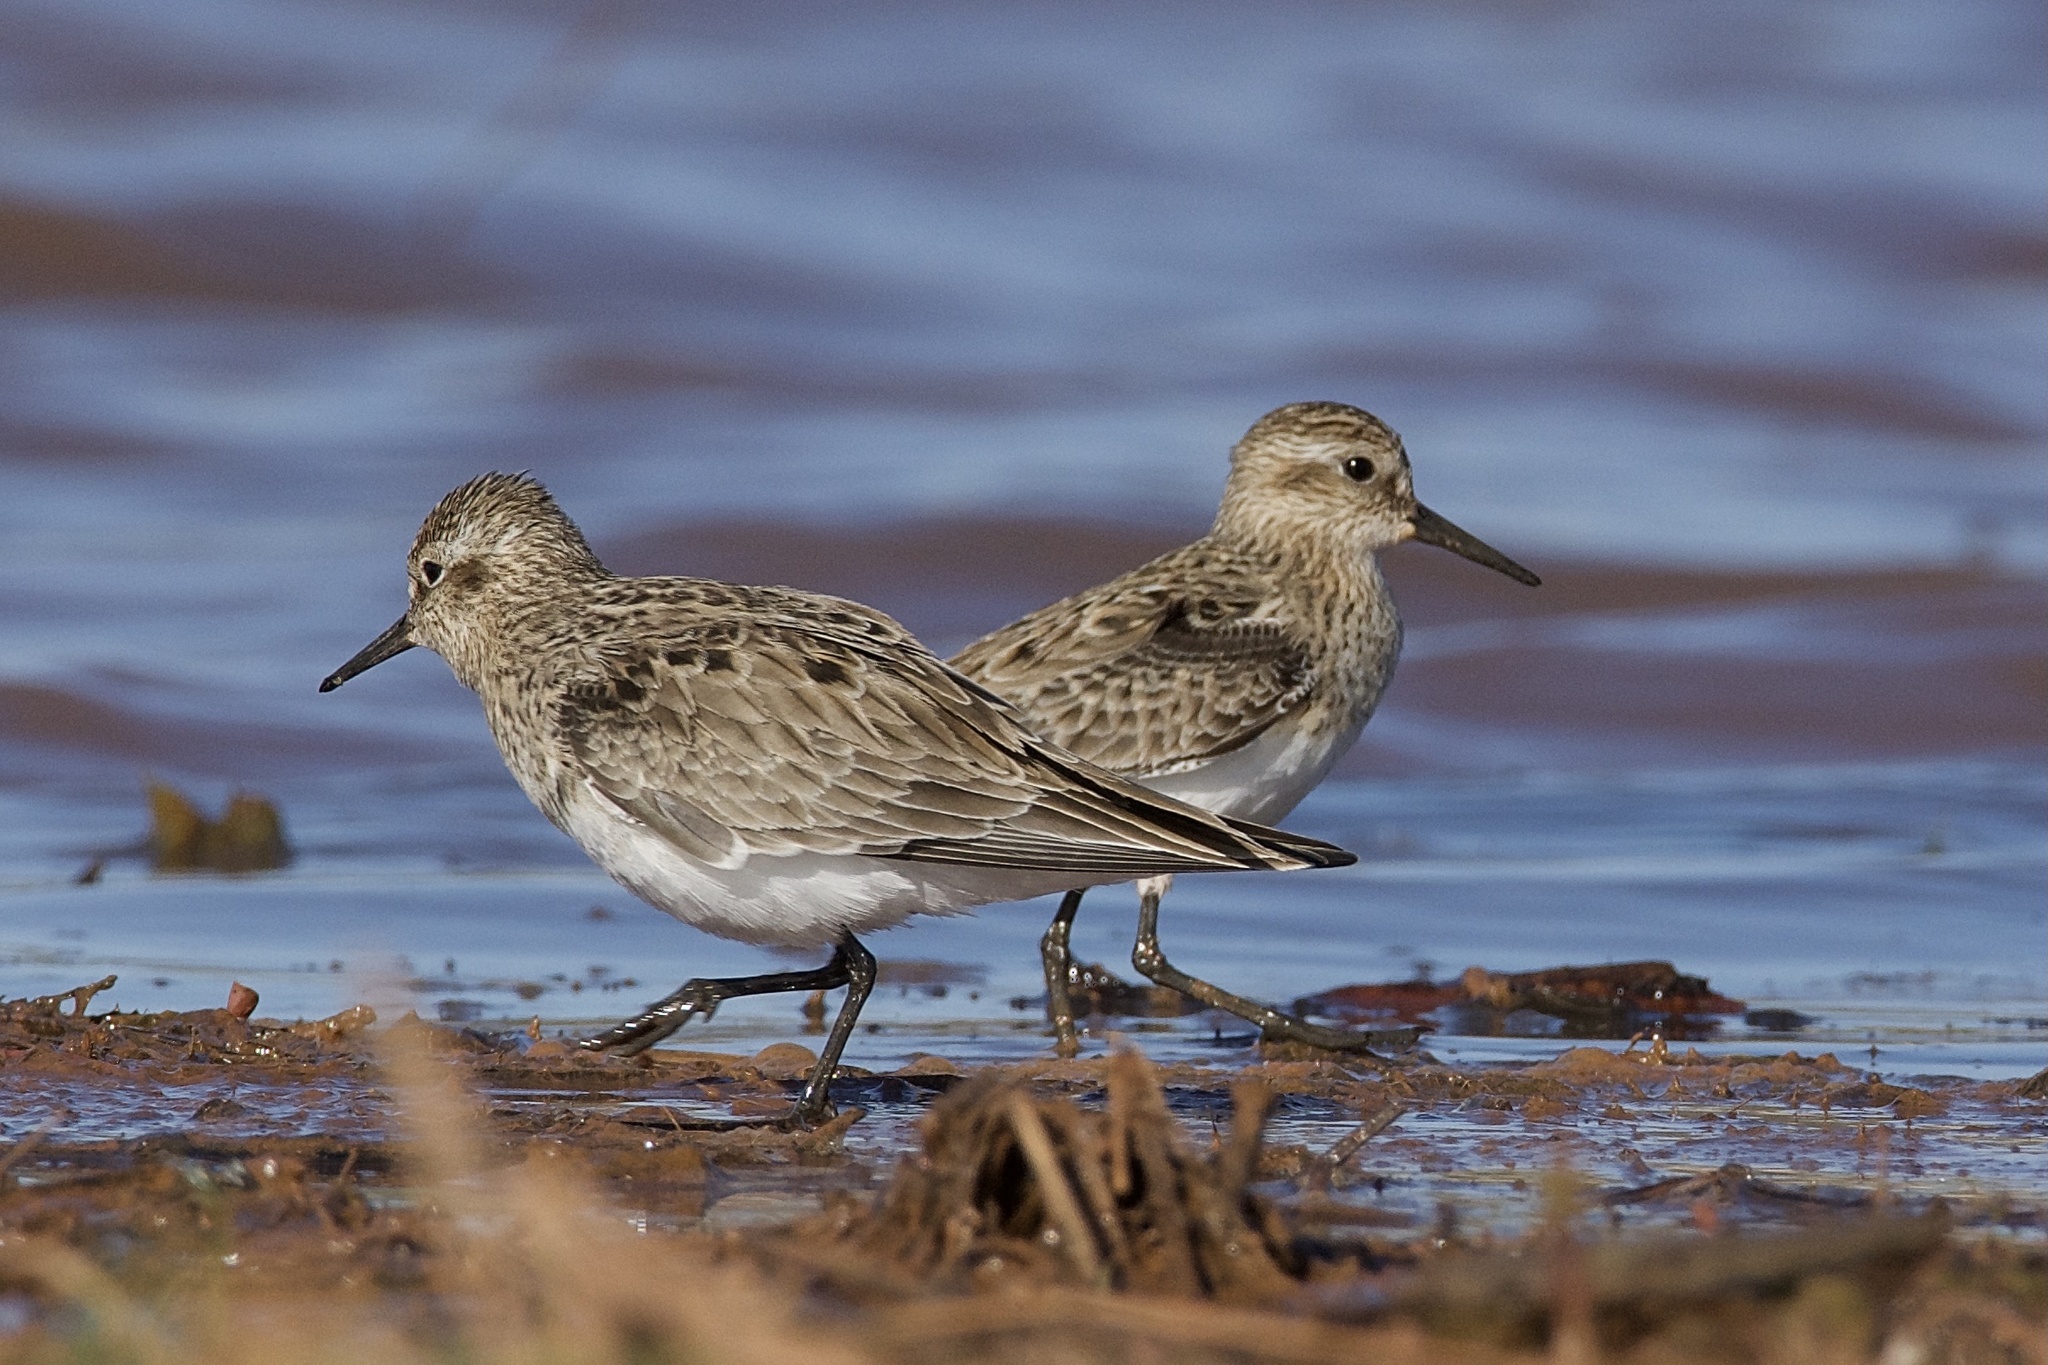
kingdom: Animalia
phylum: Chordata
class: Aves
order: Charadriiformes
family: Scolopacidae
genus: Calidris
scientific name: Calidris bairdii
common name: Baird's sandpiper
